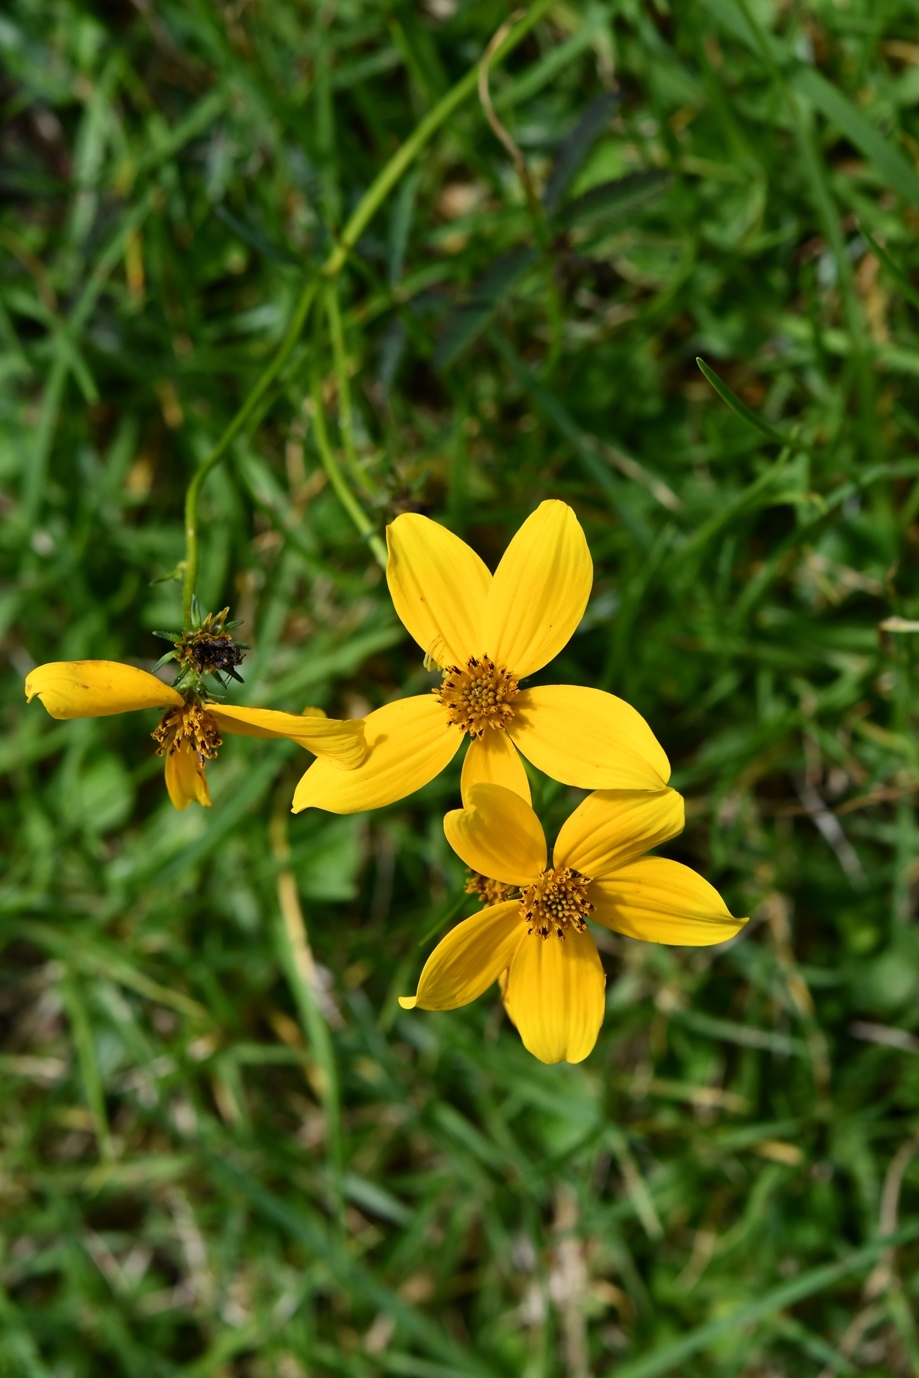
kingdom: Plantae
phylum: Tracheophyta
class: Magnoliopsida
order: Asterales
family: Asteraceae
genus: Bidens
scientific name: Bidens triplinervia
